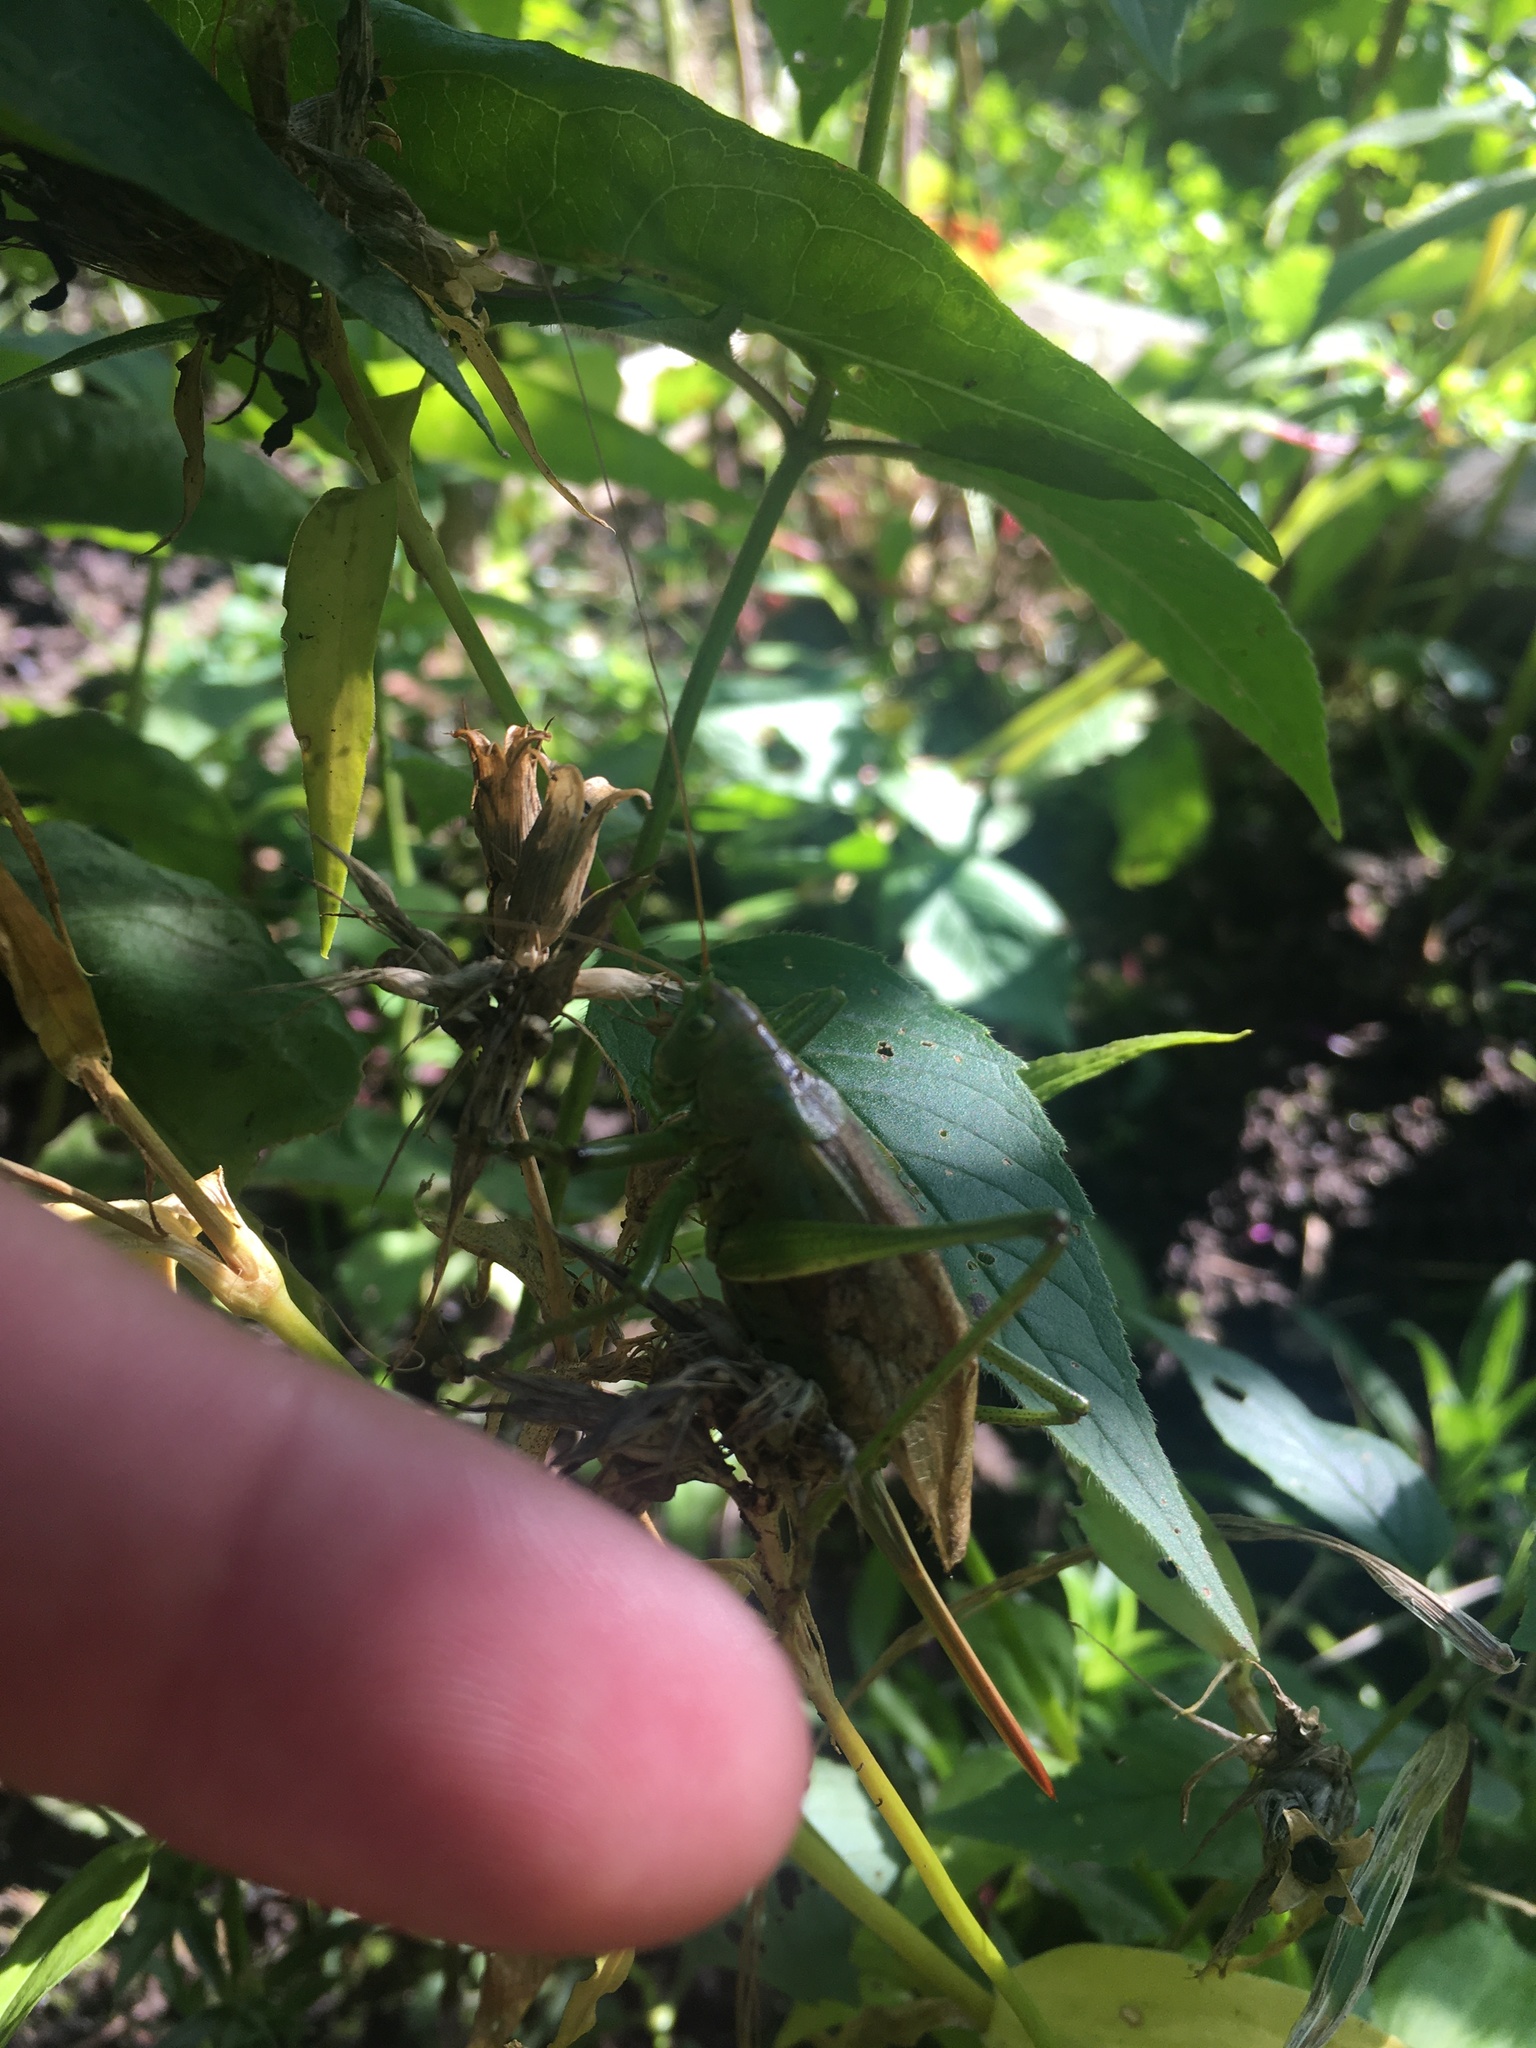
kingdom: Animalia
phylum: Arthropoda
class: Insecta
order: Orthoptera
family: Tettigoniidae
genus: Tettigonia
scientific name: Tettigonia cantans
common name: Upland green bush-cricket
